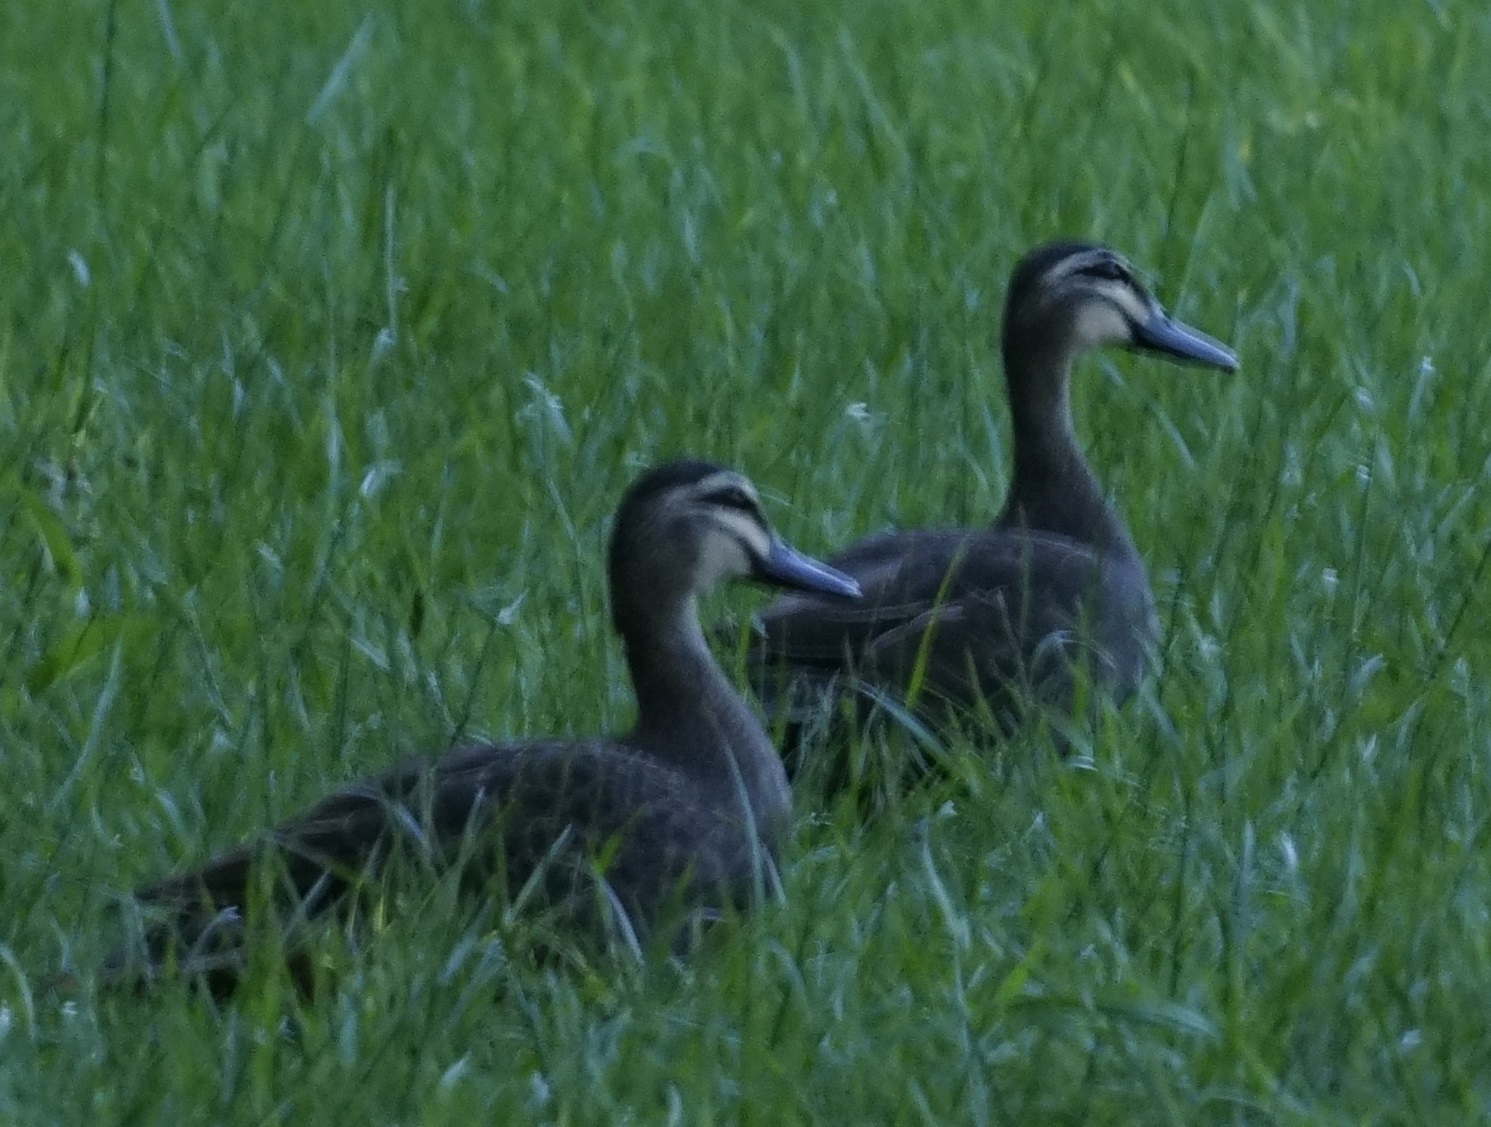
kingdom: Animalia
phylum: Chordata
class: Aves
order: Anseriformes
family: Anatidae
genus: Anas
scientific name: Anas superciliosa
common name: Pacific black duck
